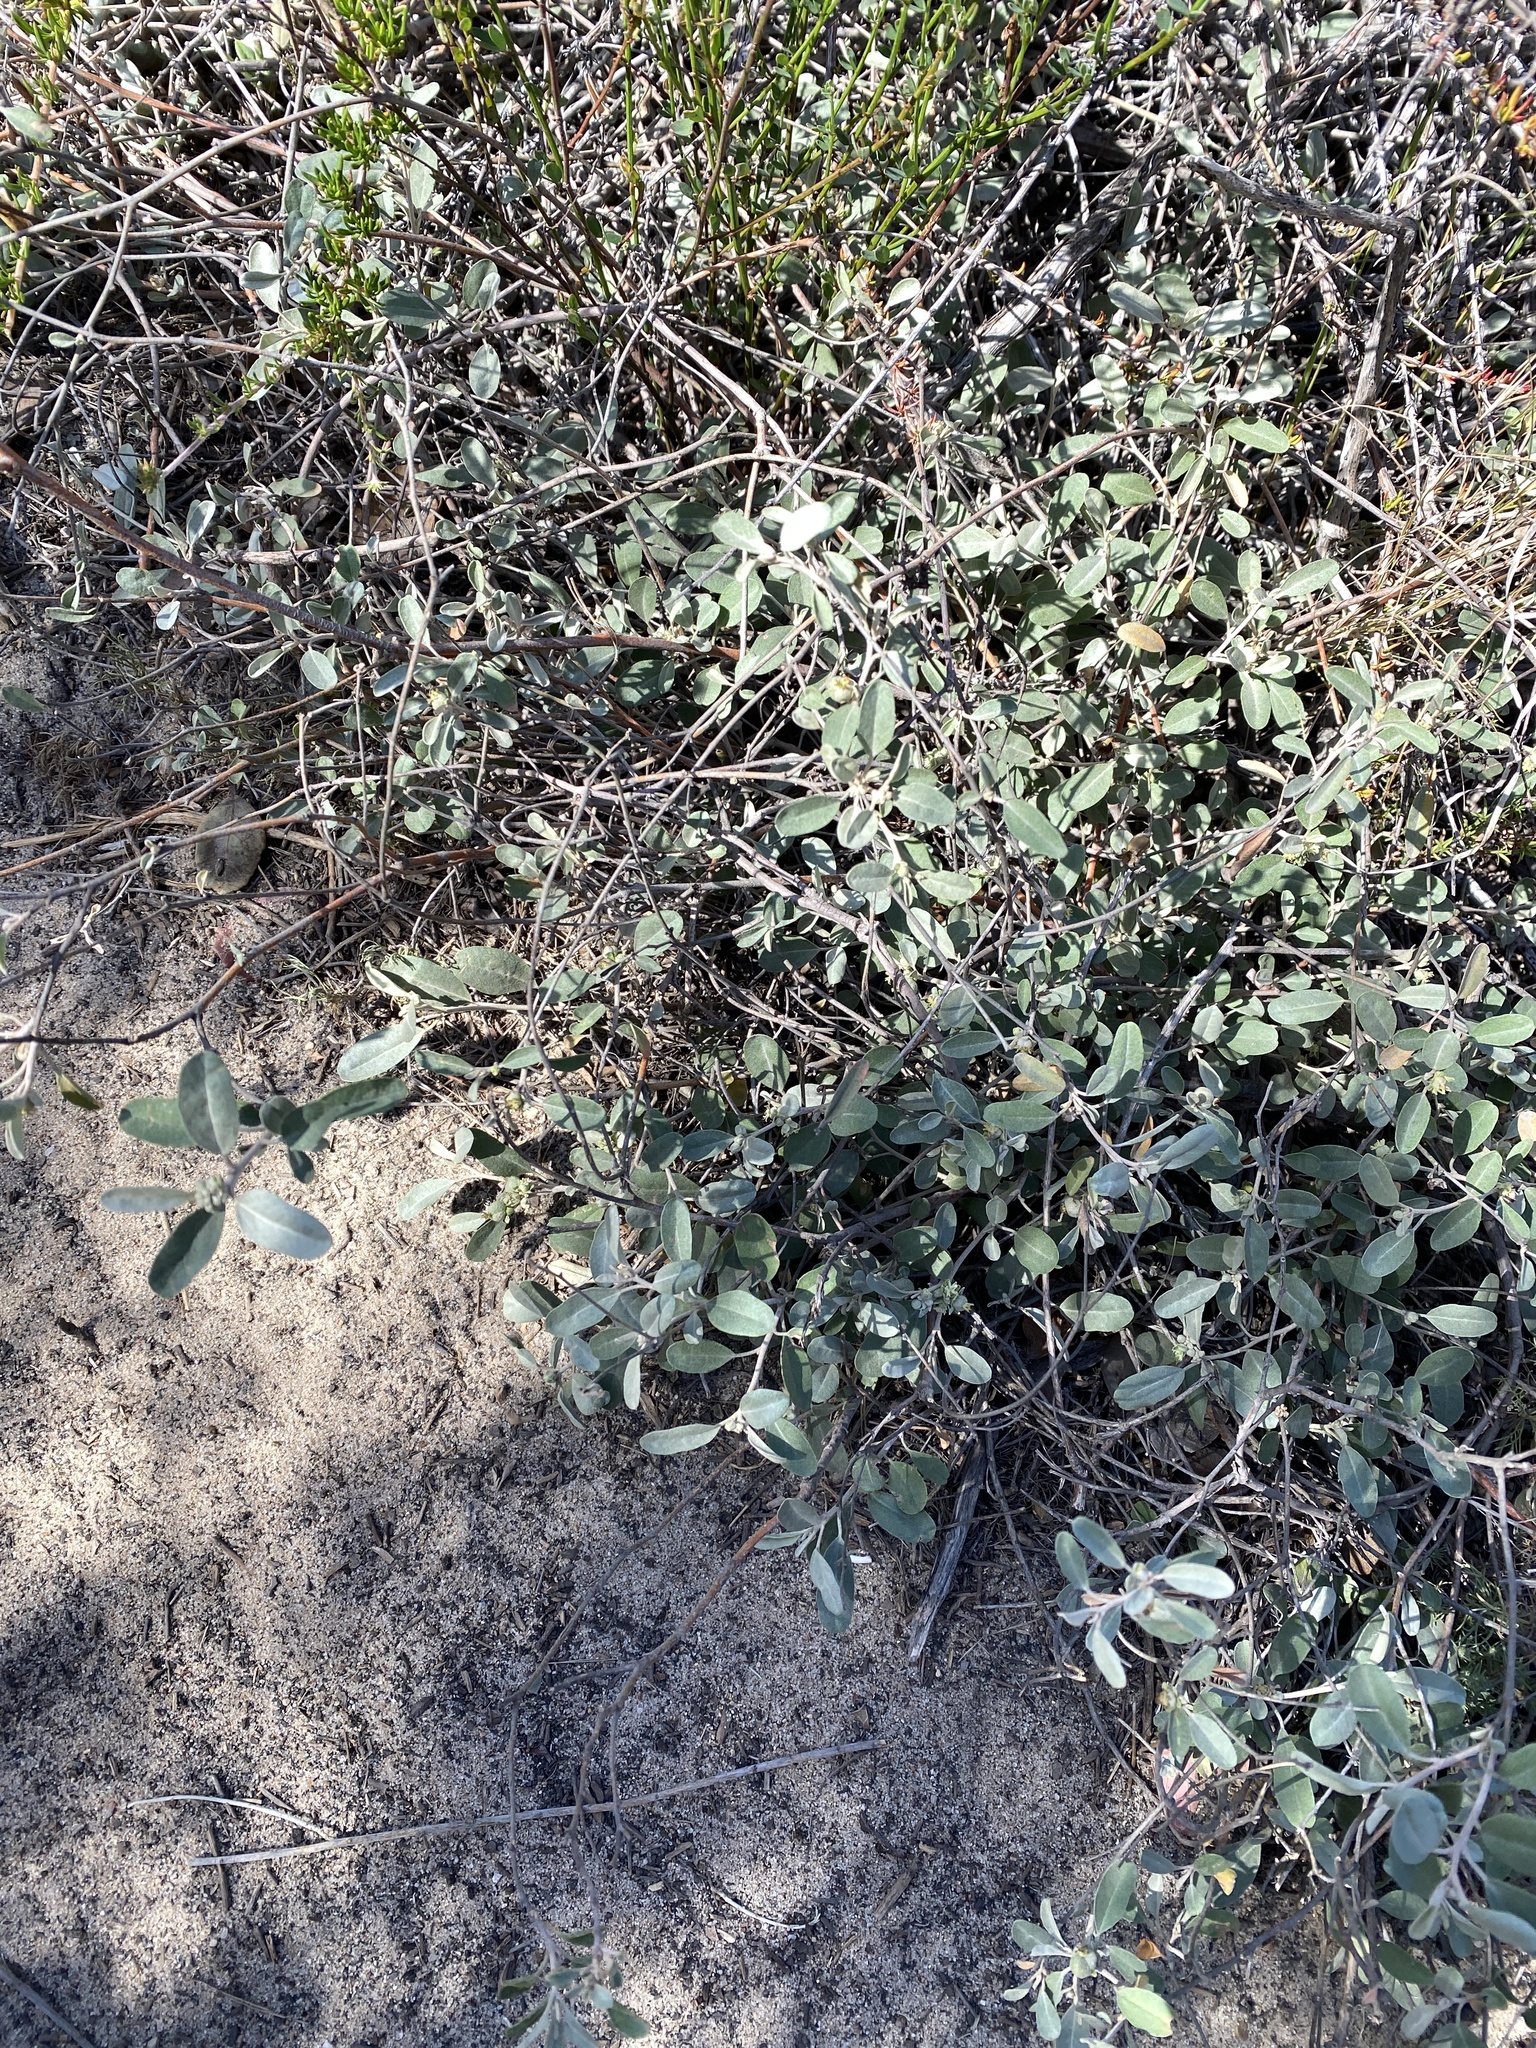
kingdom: Plantae
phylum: Tracheophyta
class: Magnoliopsida
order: Malpighiales
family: Euphorbiaceae
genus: Croton
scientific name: Croton californicus
